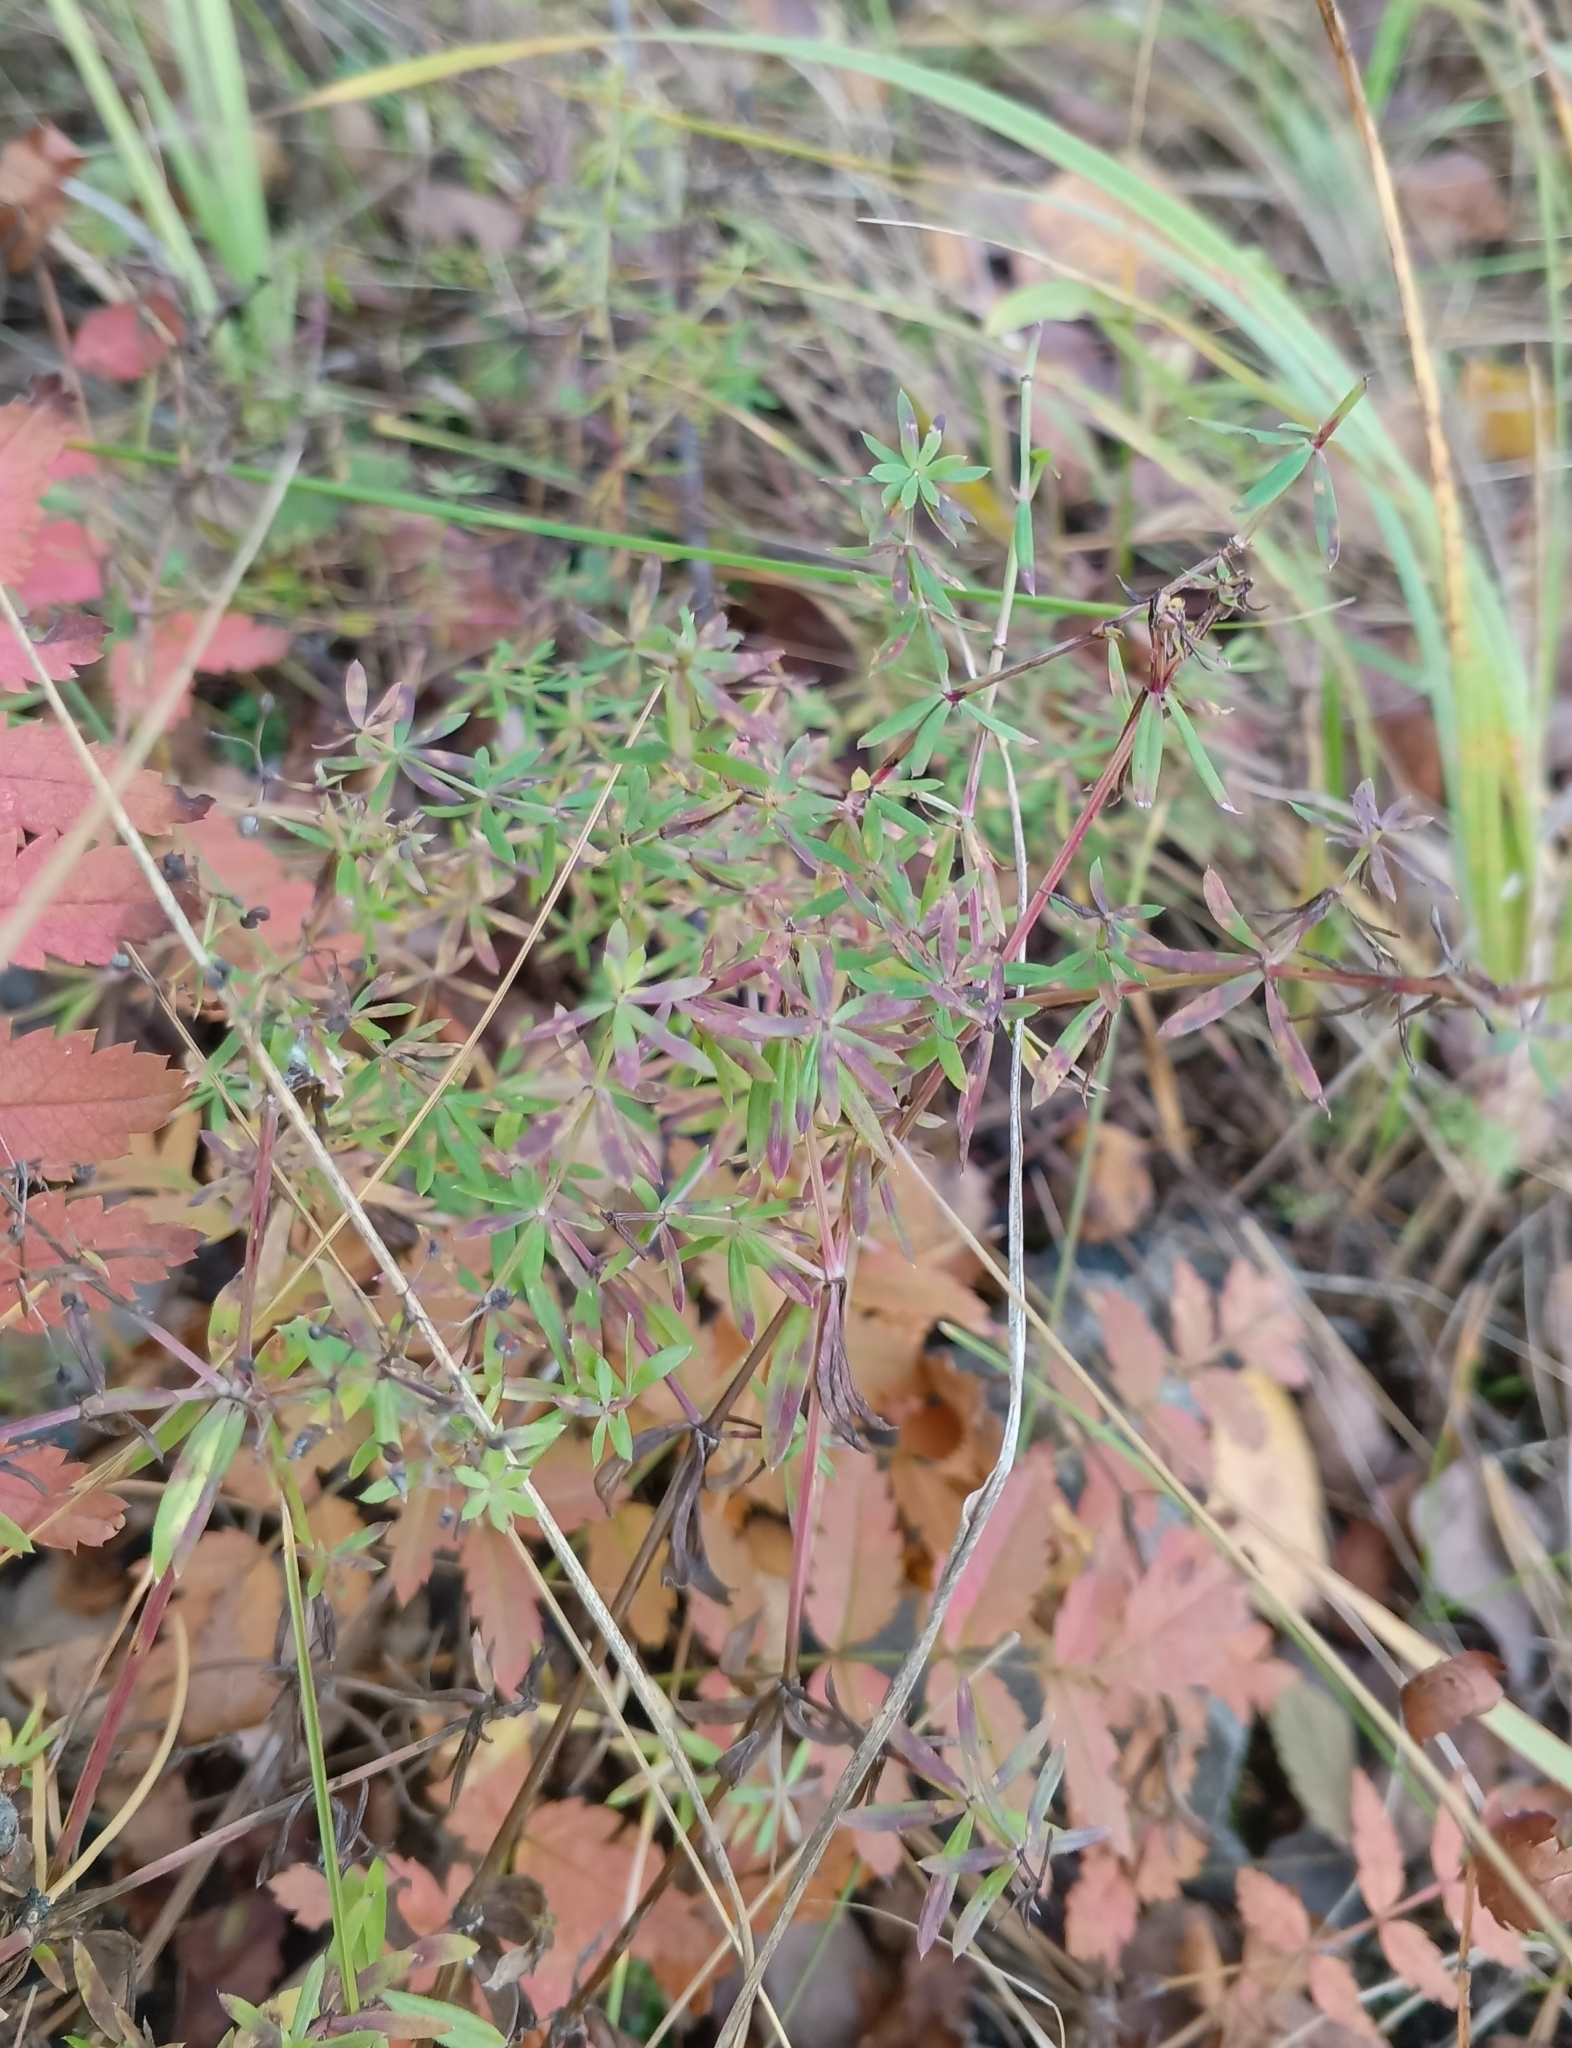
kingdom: Plantae
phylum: Tracheophyta
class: Magnoliopsida
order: Gentianales
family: Rubiaceae
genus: Galium
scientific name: Galium mollugo
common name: Hedge bedstraw
